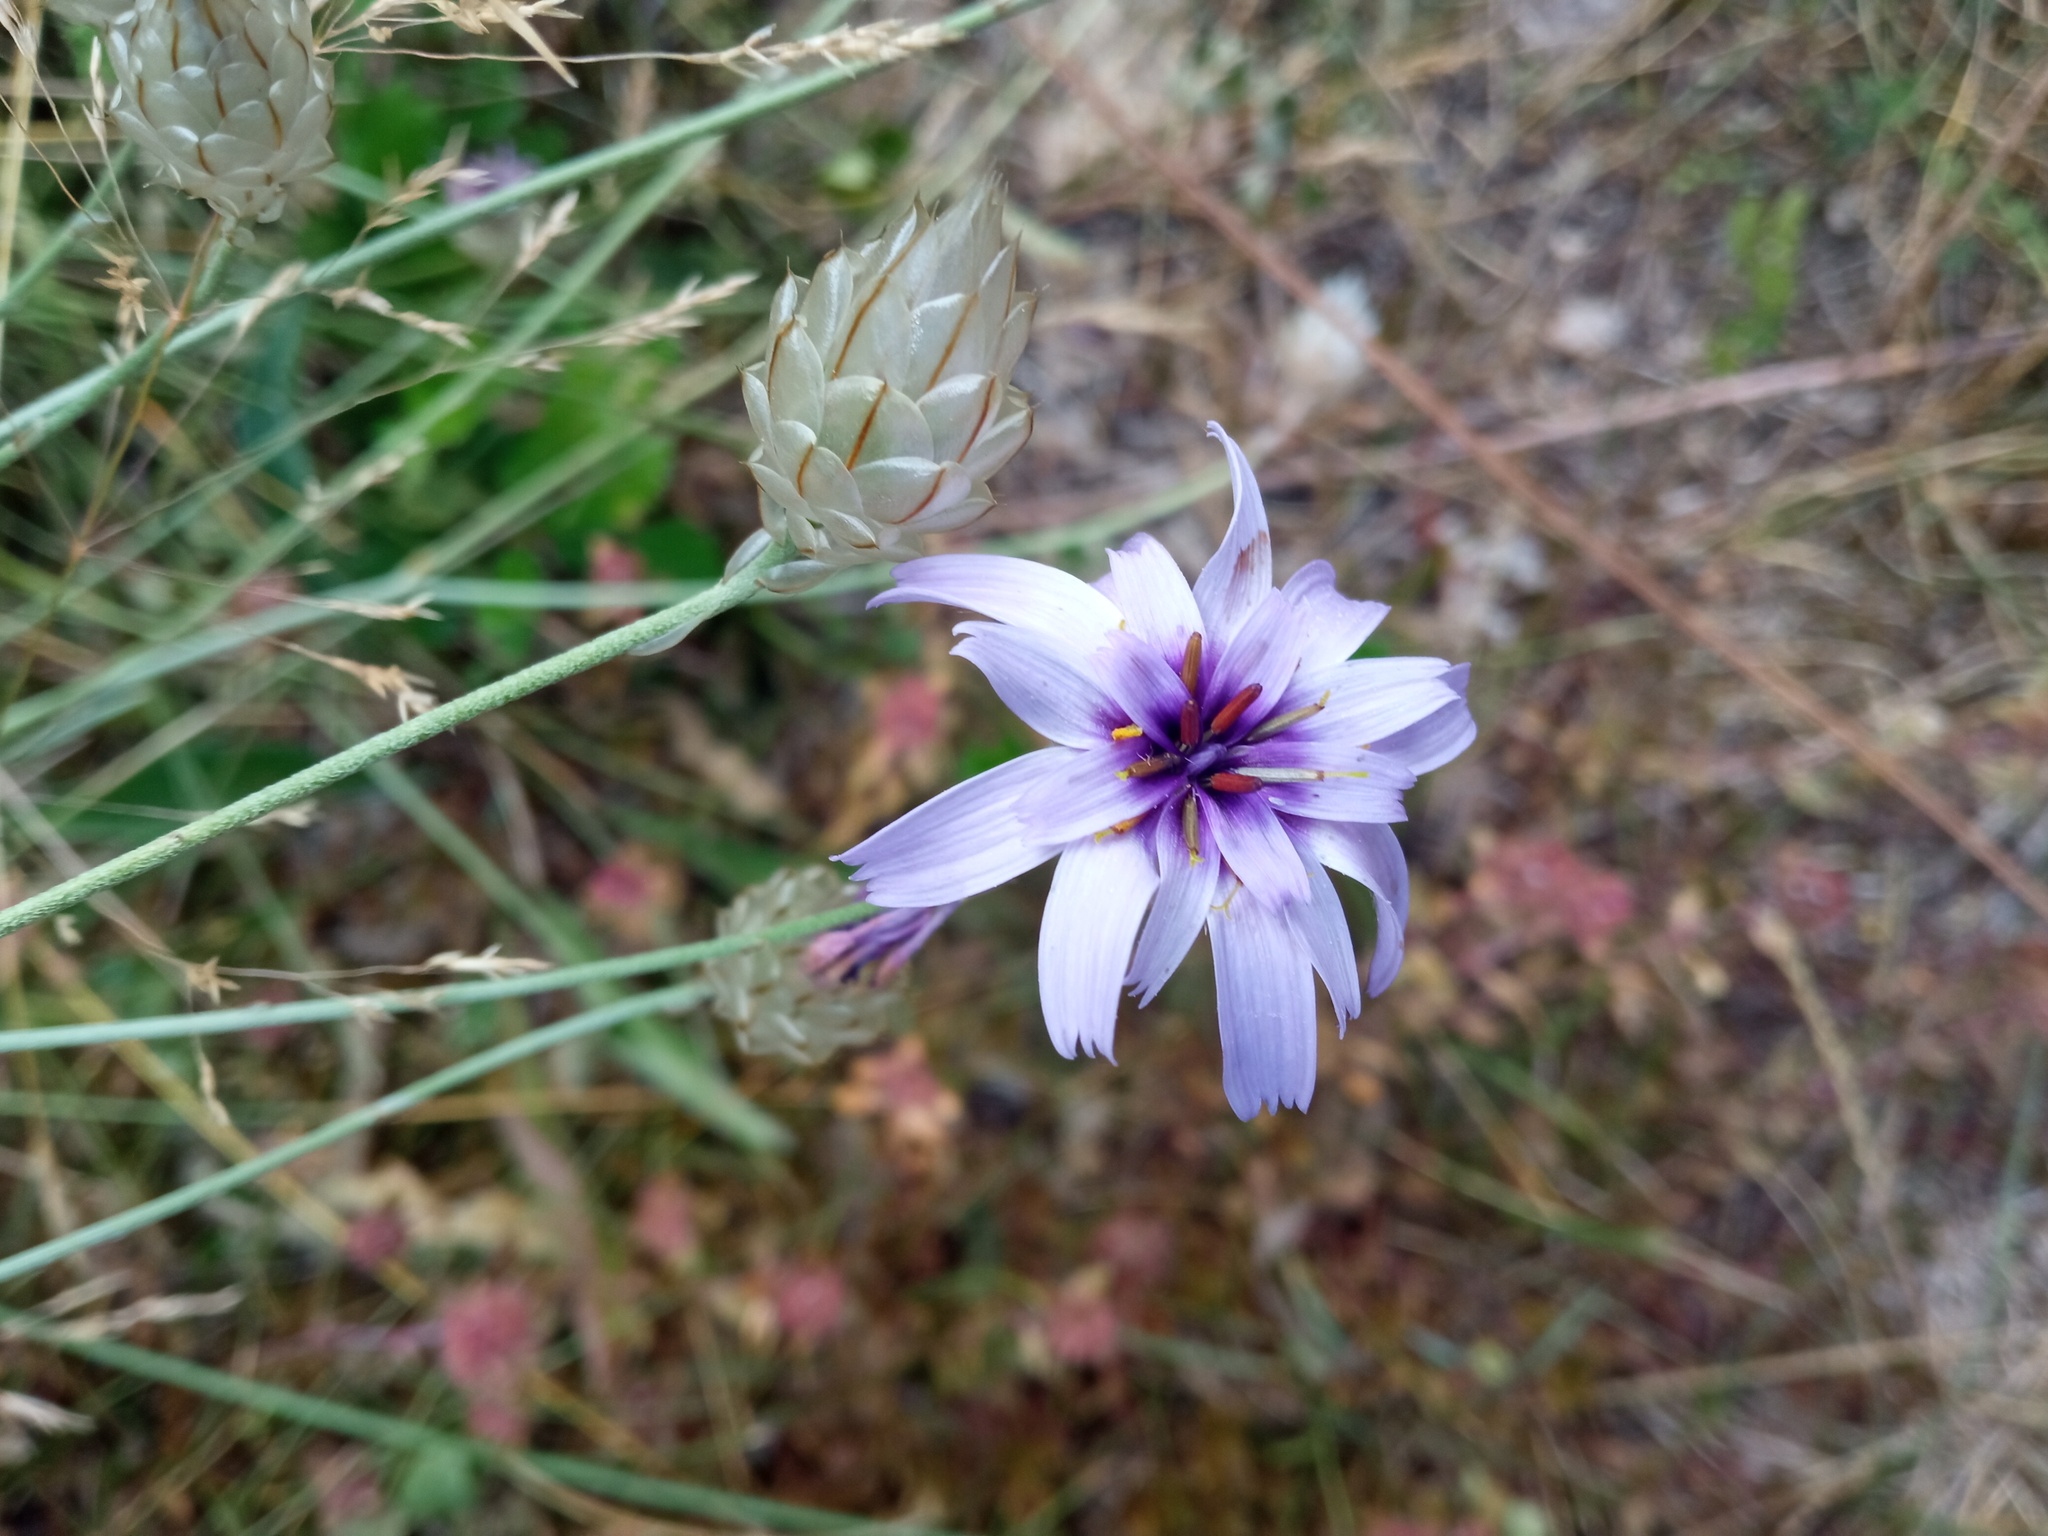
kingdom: Plantae
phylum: Tracheophyta
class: Magnoliopsida
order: Asterales
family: Asteraceae
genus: Catananche
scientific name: Catananche caerulea
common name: Blue cupidone
